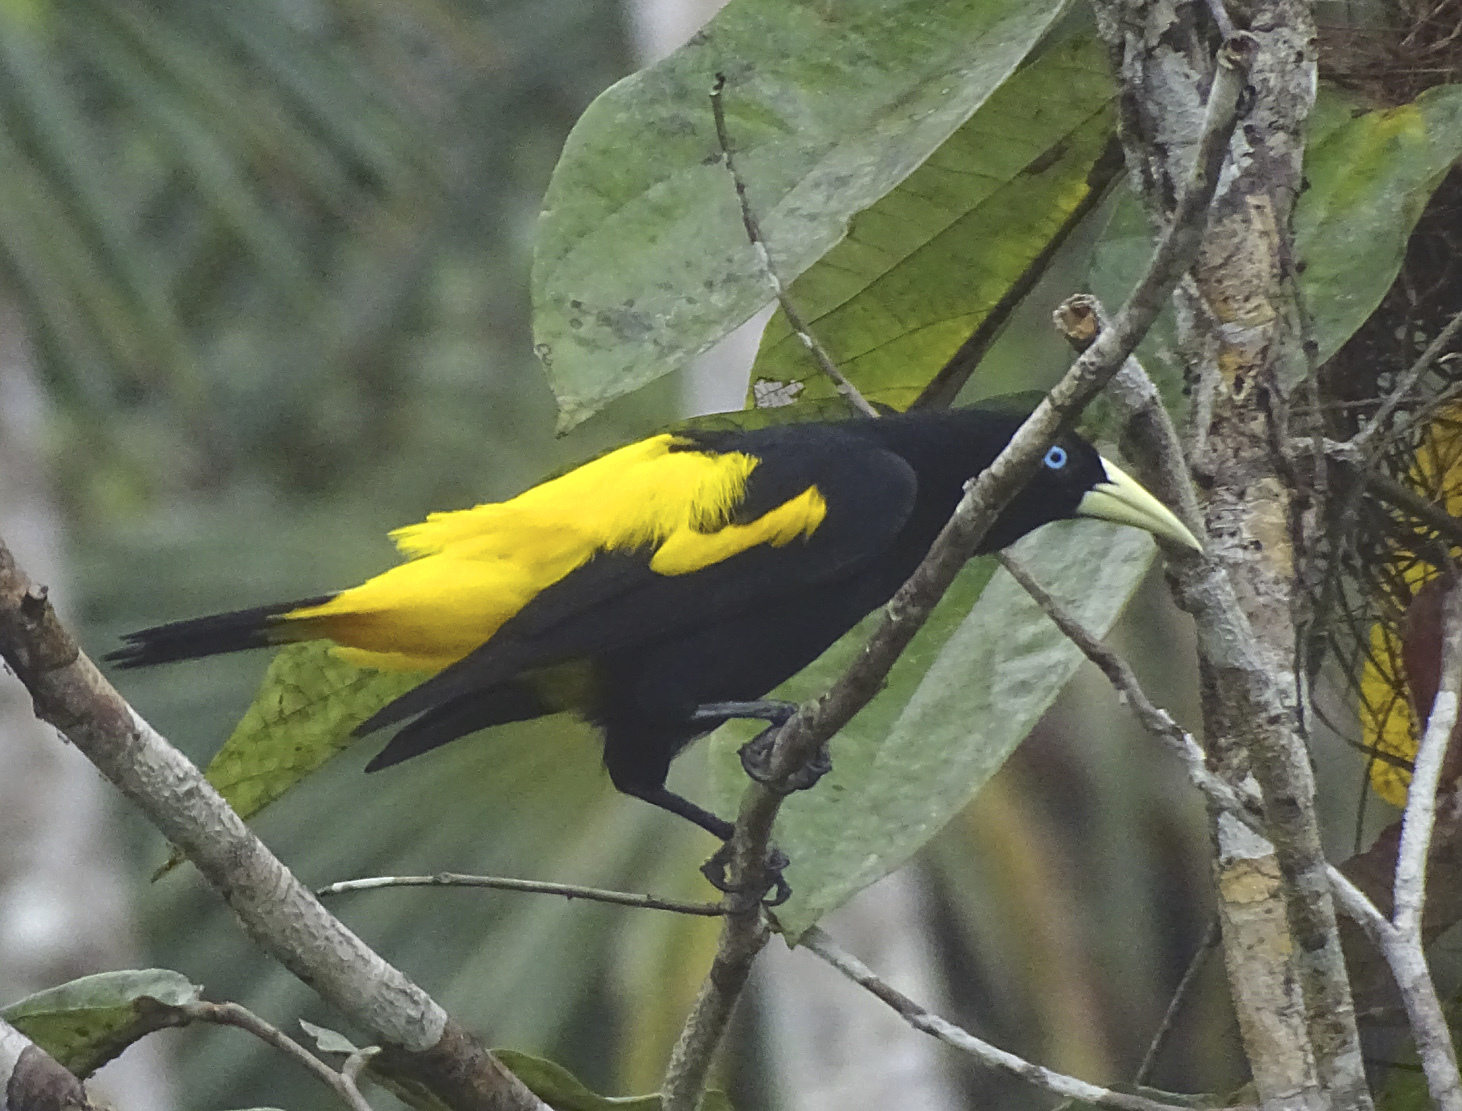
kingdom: Animalia
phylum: Chordata
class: Aves
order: Passeriformes
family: Icteridae
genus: Cacicus
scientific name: Cacicus cela
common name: Yellow-rumped cacique
